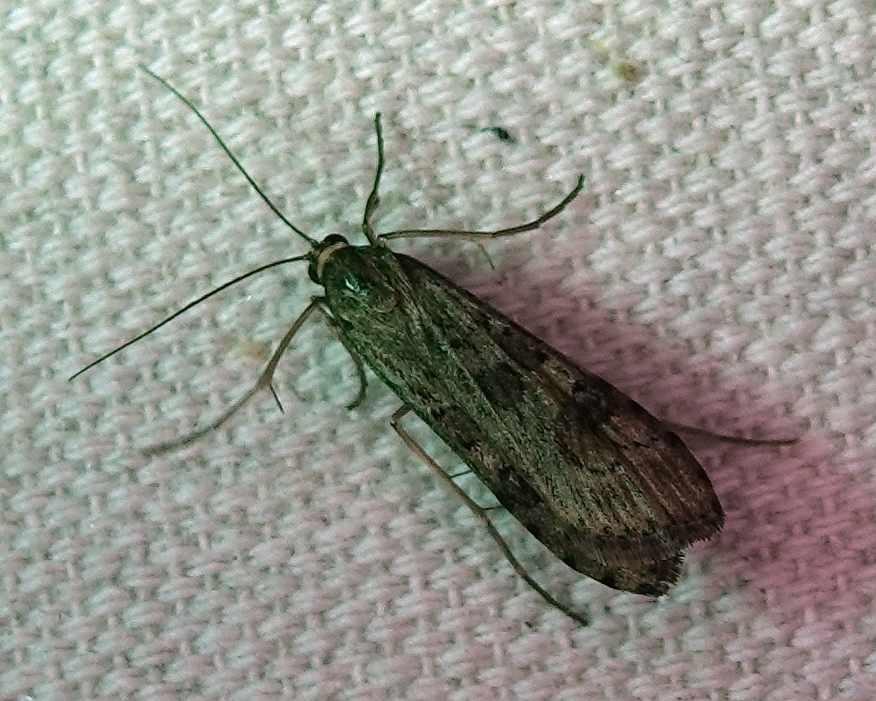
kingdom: Animalia
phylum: Arthropoda
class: Insecta
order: Lepidoptera
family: Crambidae
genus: Nomophila
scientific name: Nomophila nearctica
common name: American rush veneer
